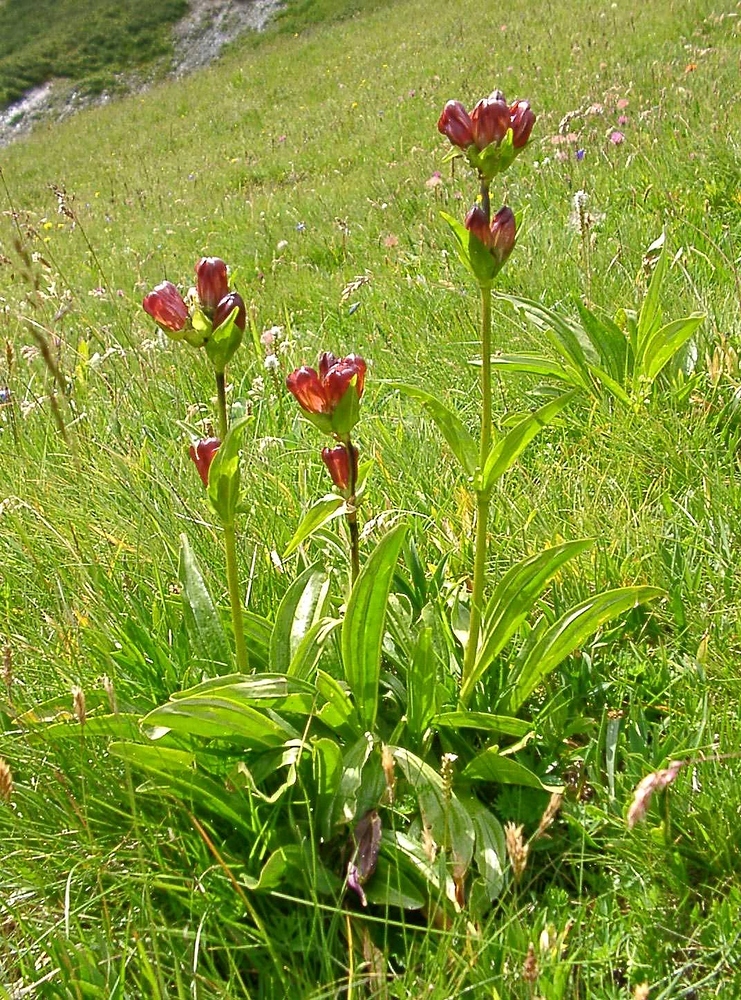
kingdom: Plantae
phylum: Tracheophyta
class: Magnoliopsida
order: Gentianales
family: Gentianaceae
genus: Gentiana
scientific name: Gentiana purpurea
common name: Purple gentian
